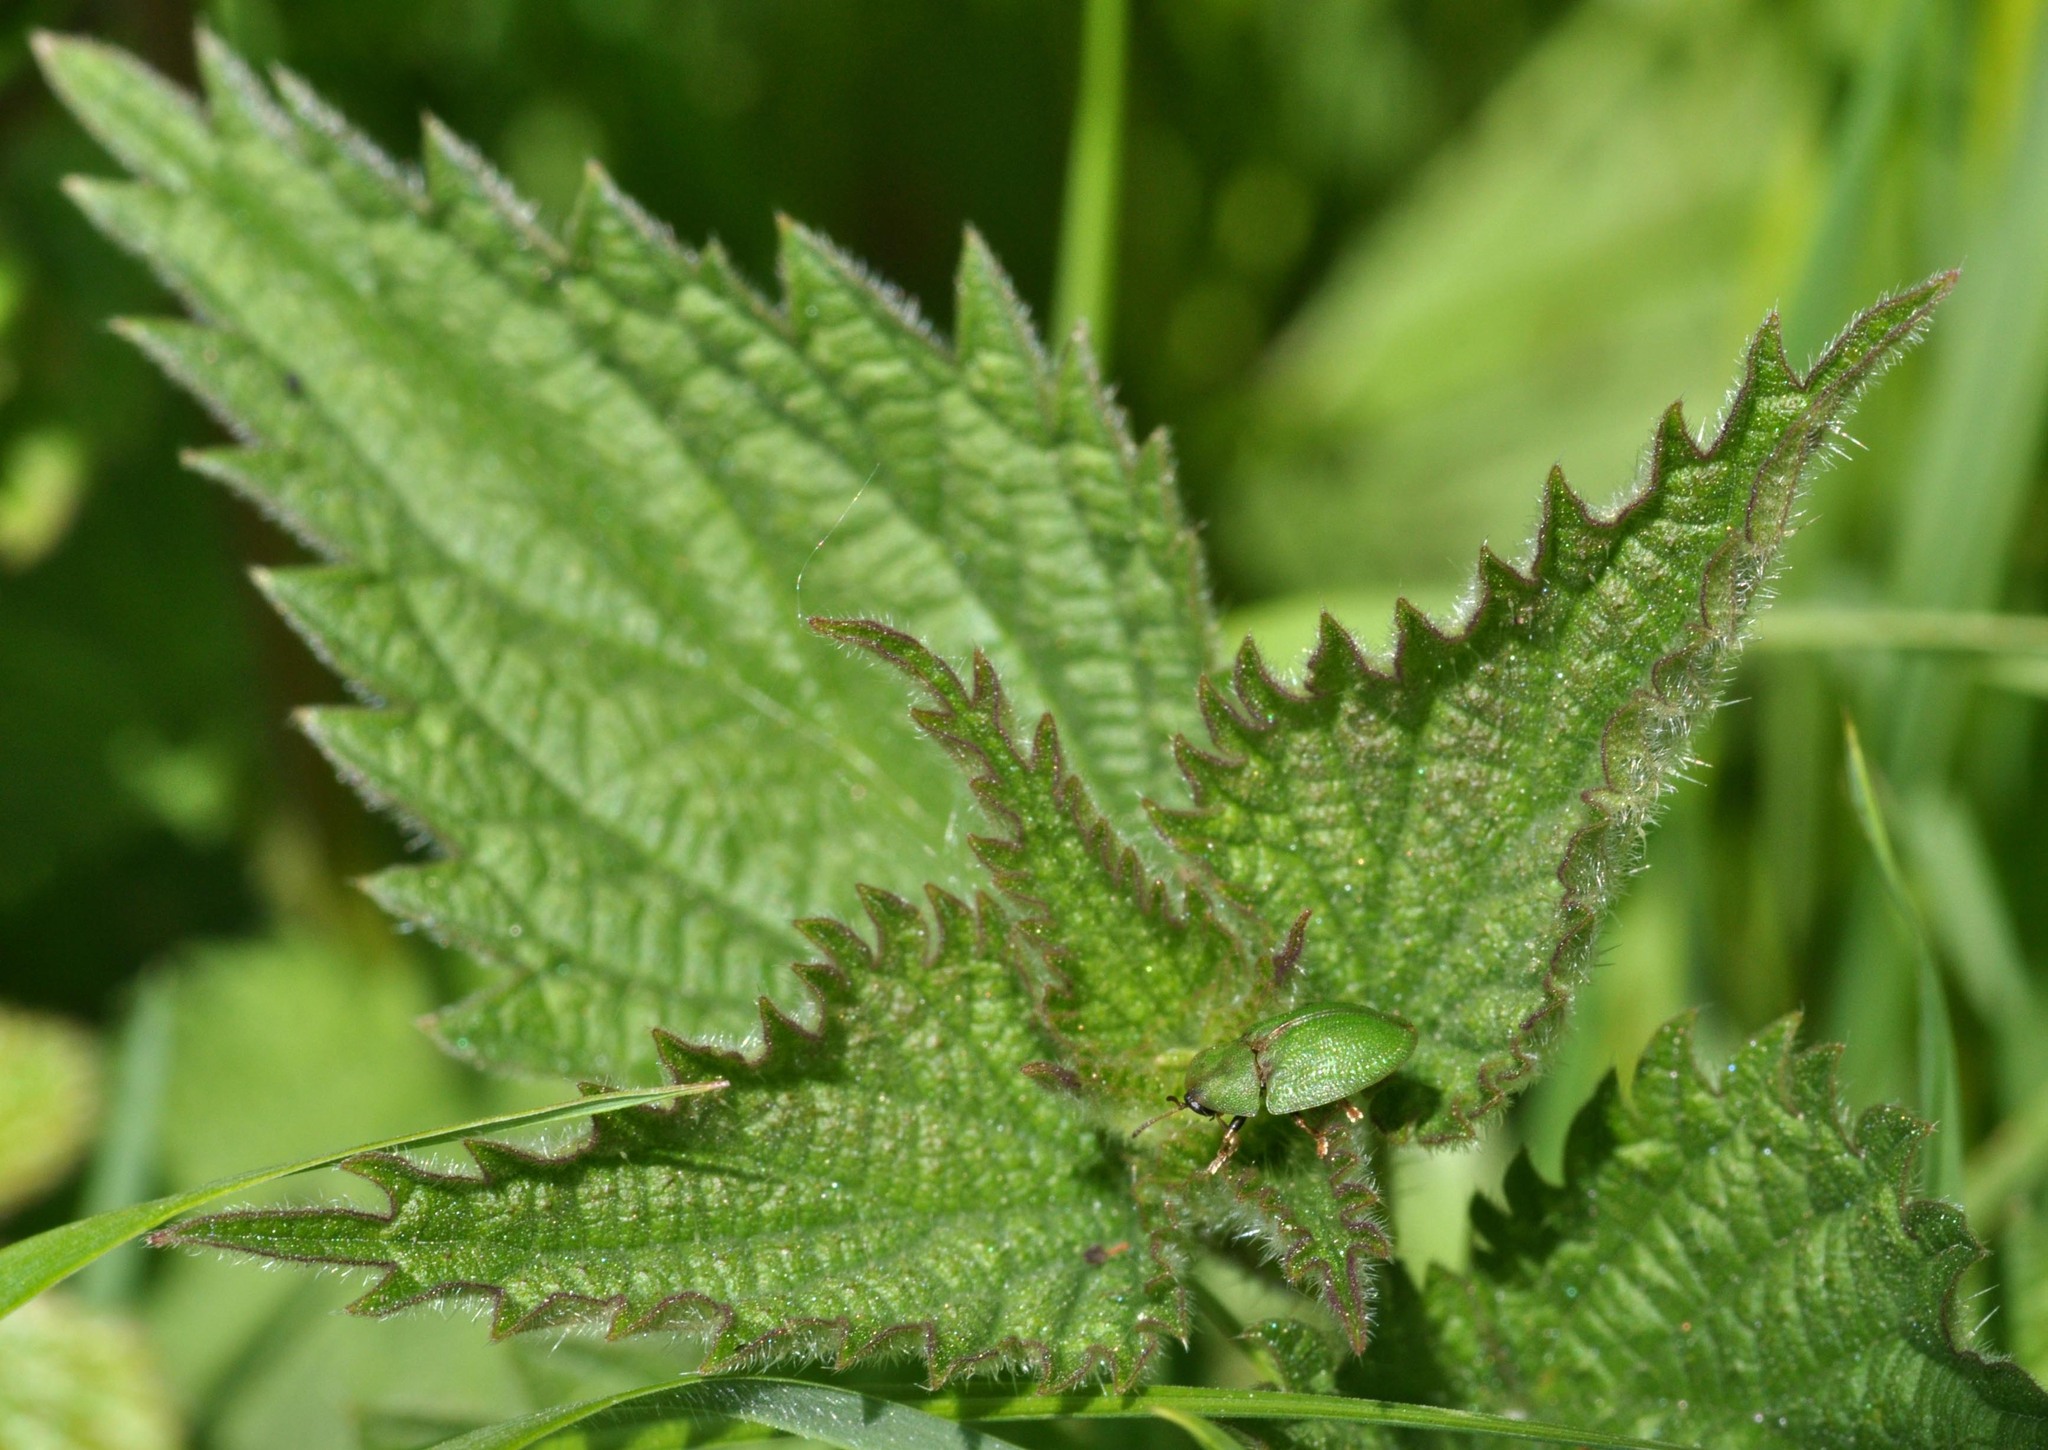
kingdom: Animalia
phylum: Arthropoda
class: Insecta
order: Coleoptera
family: Chrysomelidae
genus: Cassida
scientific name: Cassida rubiginosa
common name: Thistle tortoise beetle
